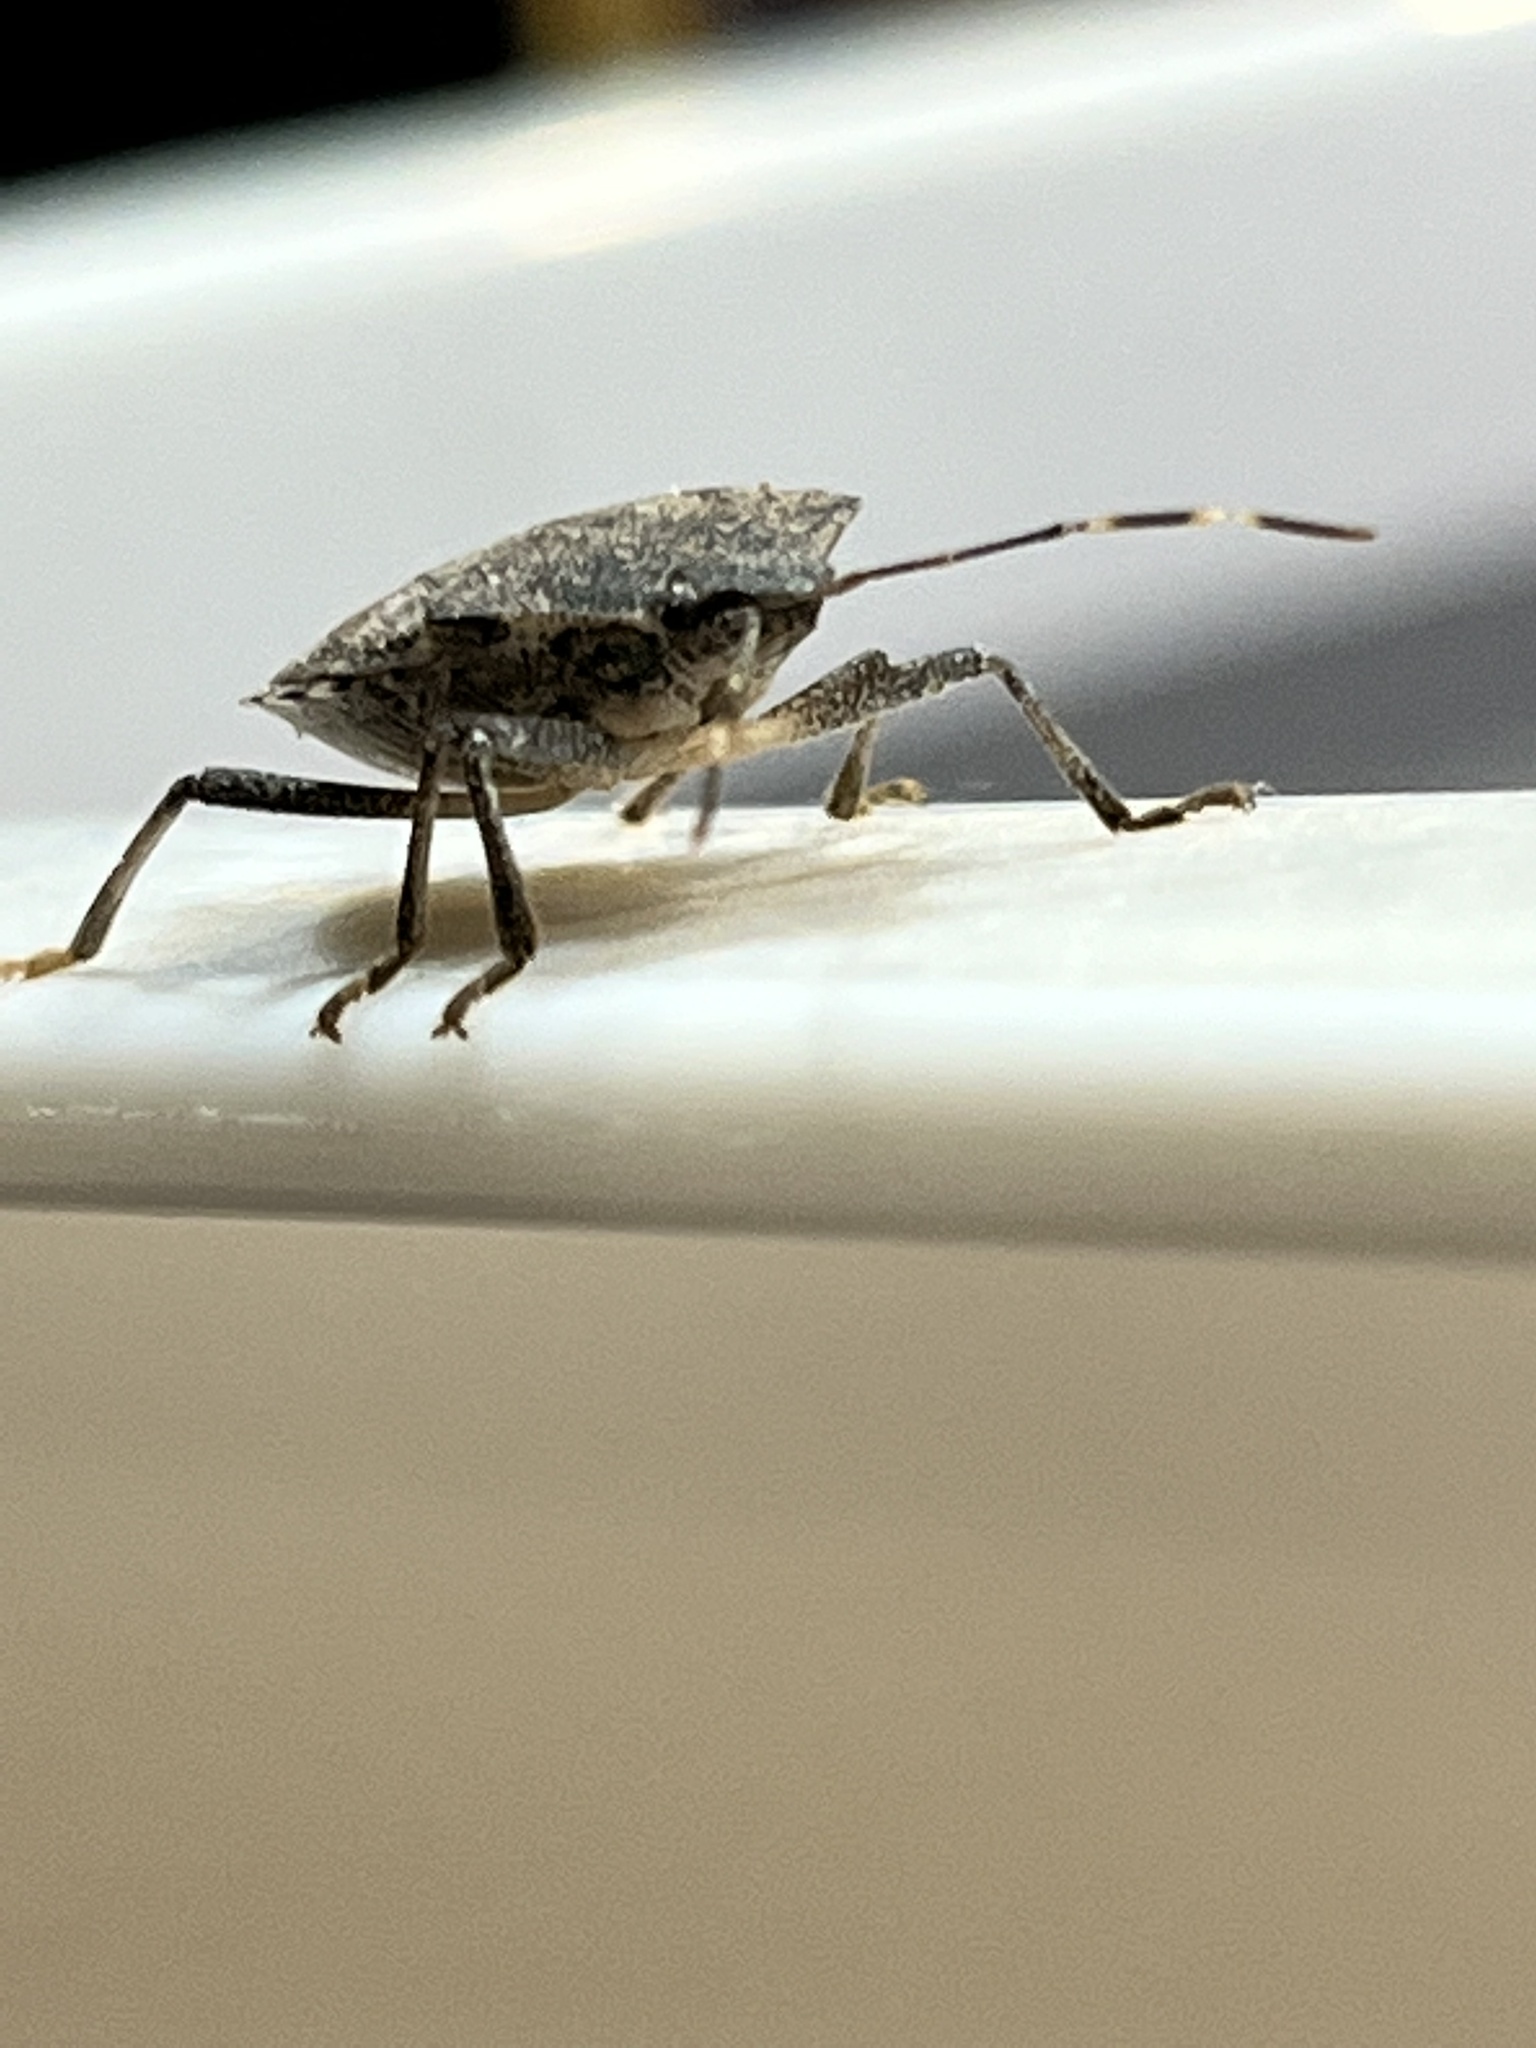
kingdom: Animalia
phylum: Arthropoda
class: Insecta
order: Hemiptera
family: Pentatomidae
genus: Halyomorpha
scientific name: Halyomorpha halys
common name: Brown marmorated stink bug
